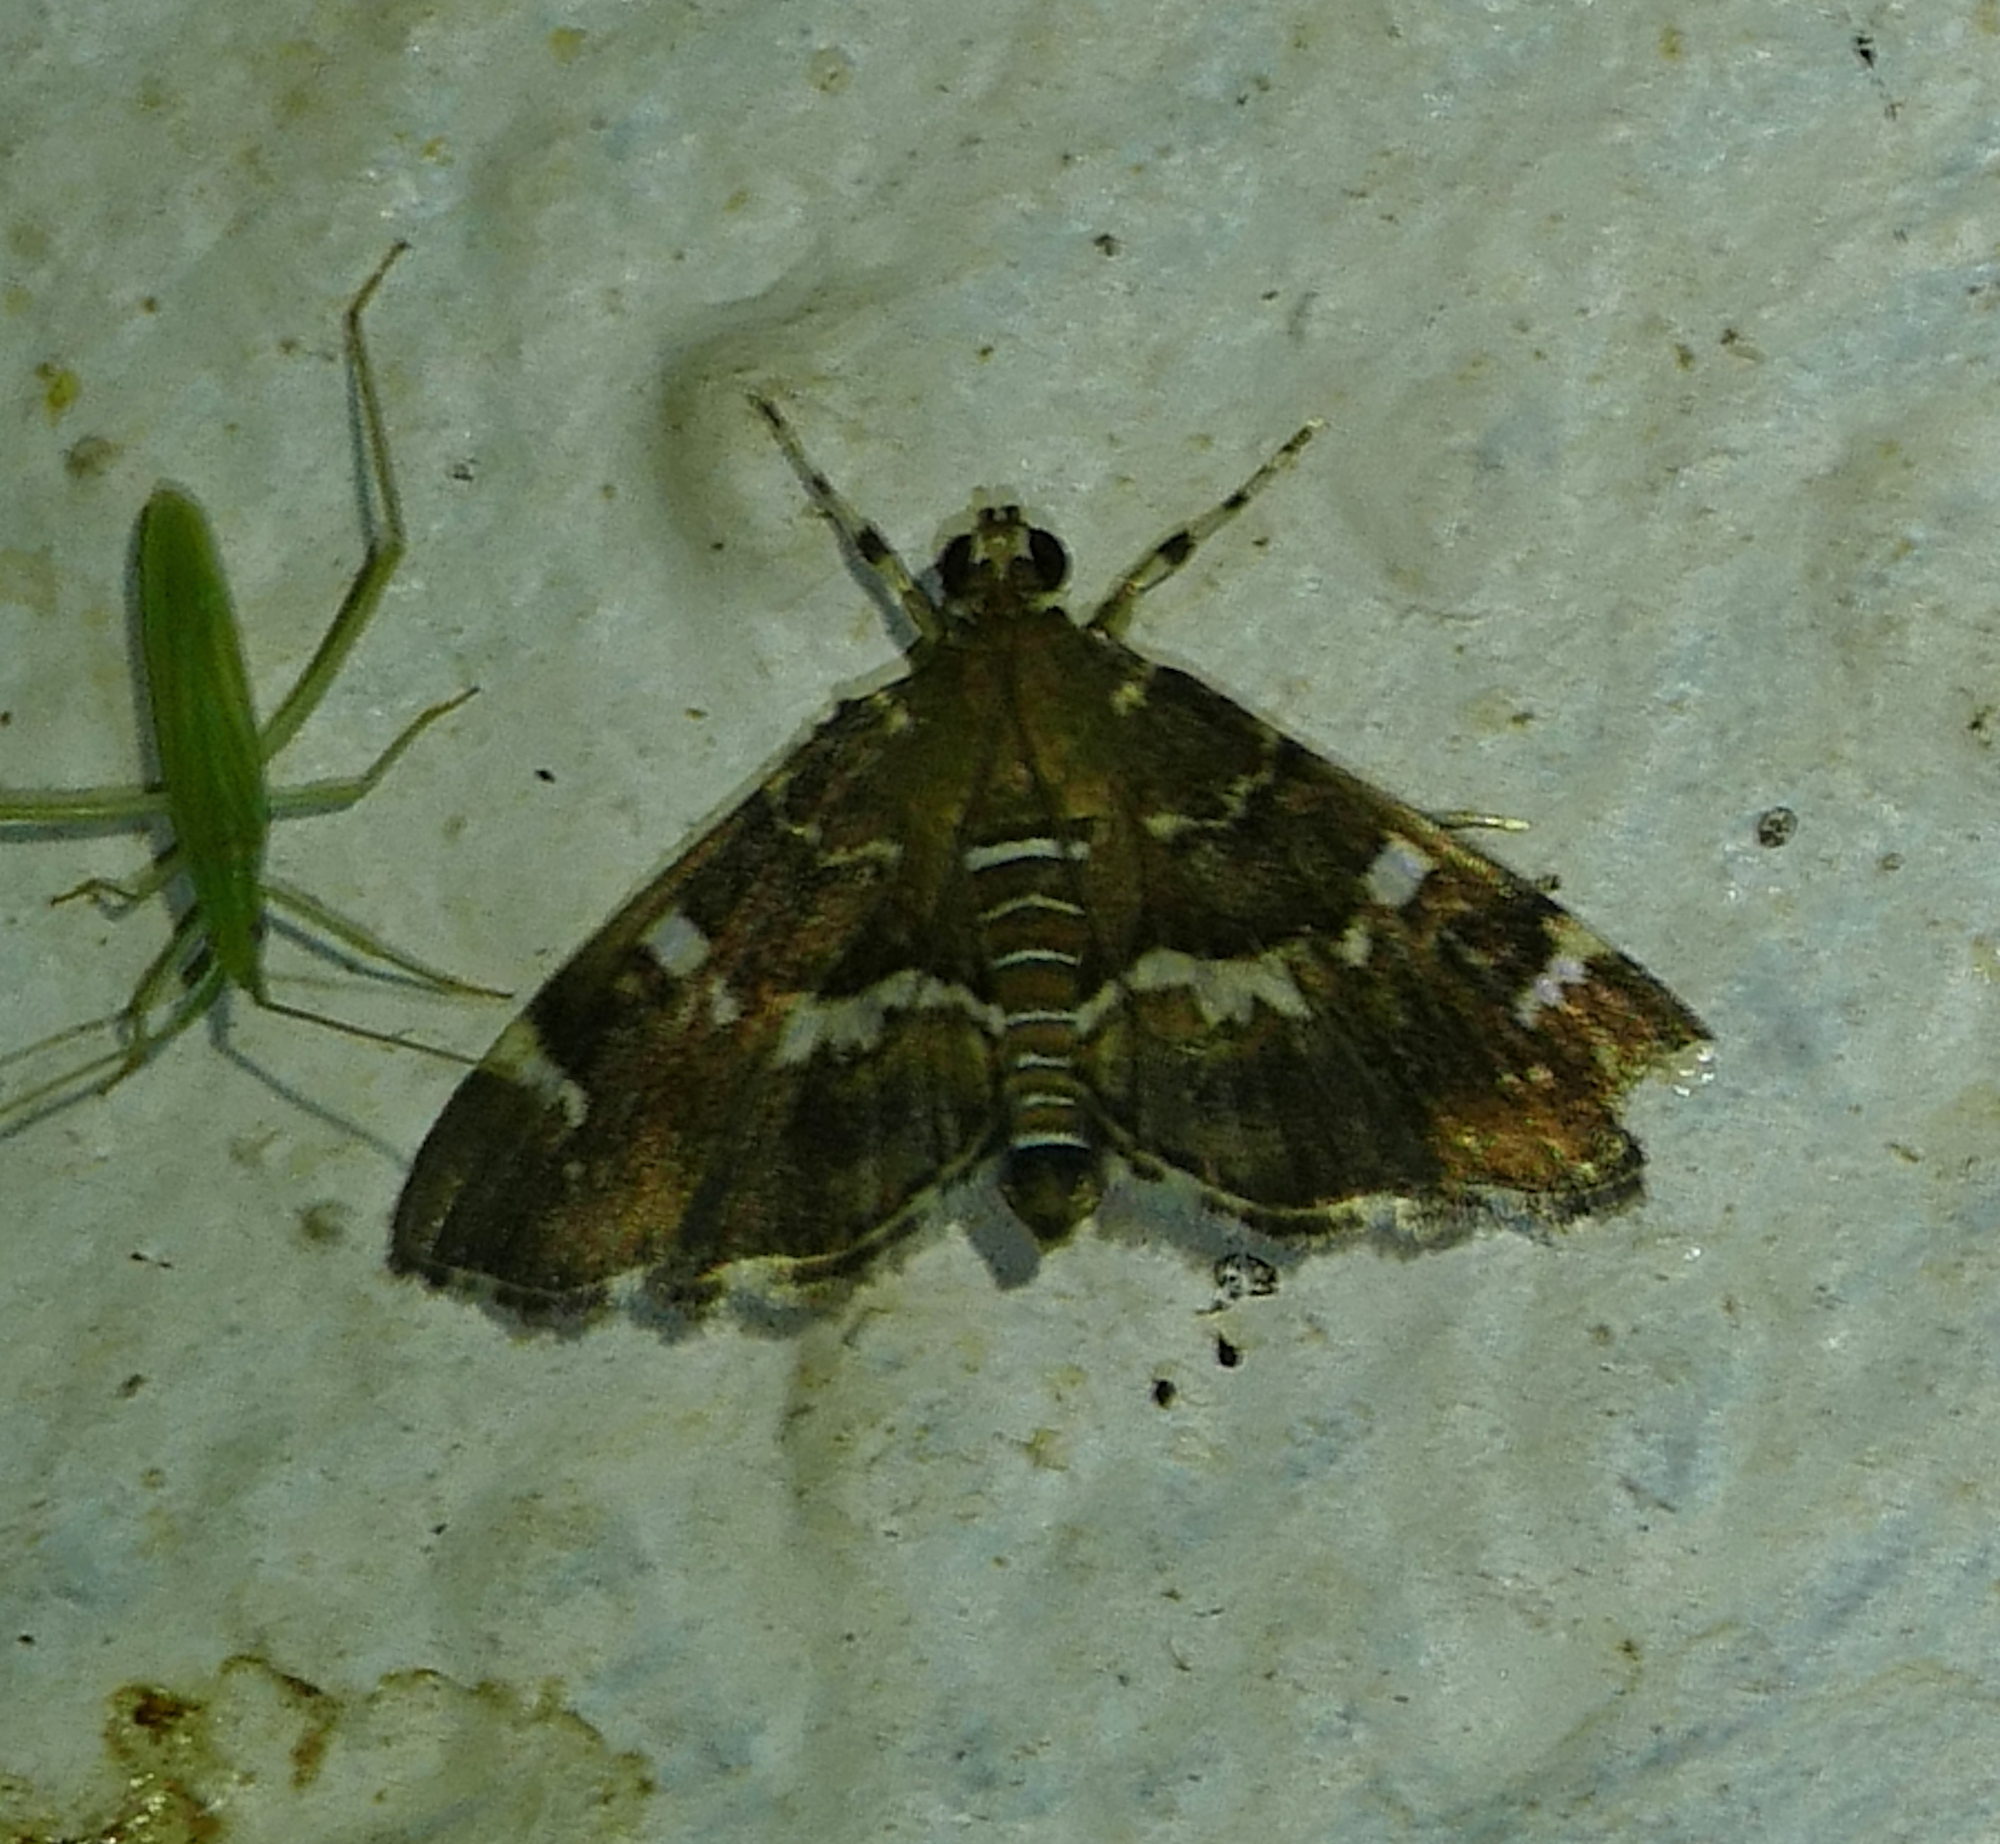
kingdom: Animalia
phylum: Arthropoda
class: Insecta
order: Lepidoptera
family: Crambidae
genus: Hymenia
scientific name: Hymenia perspectalis
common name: Spotted beet webworm
